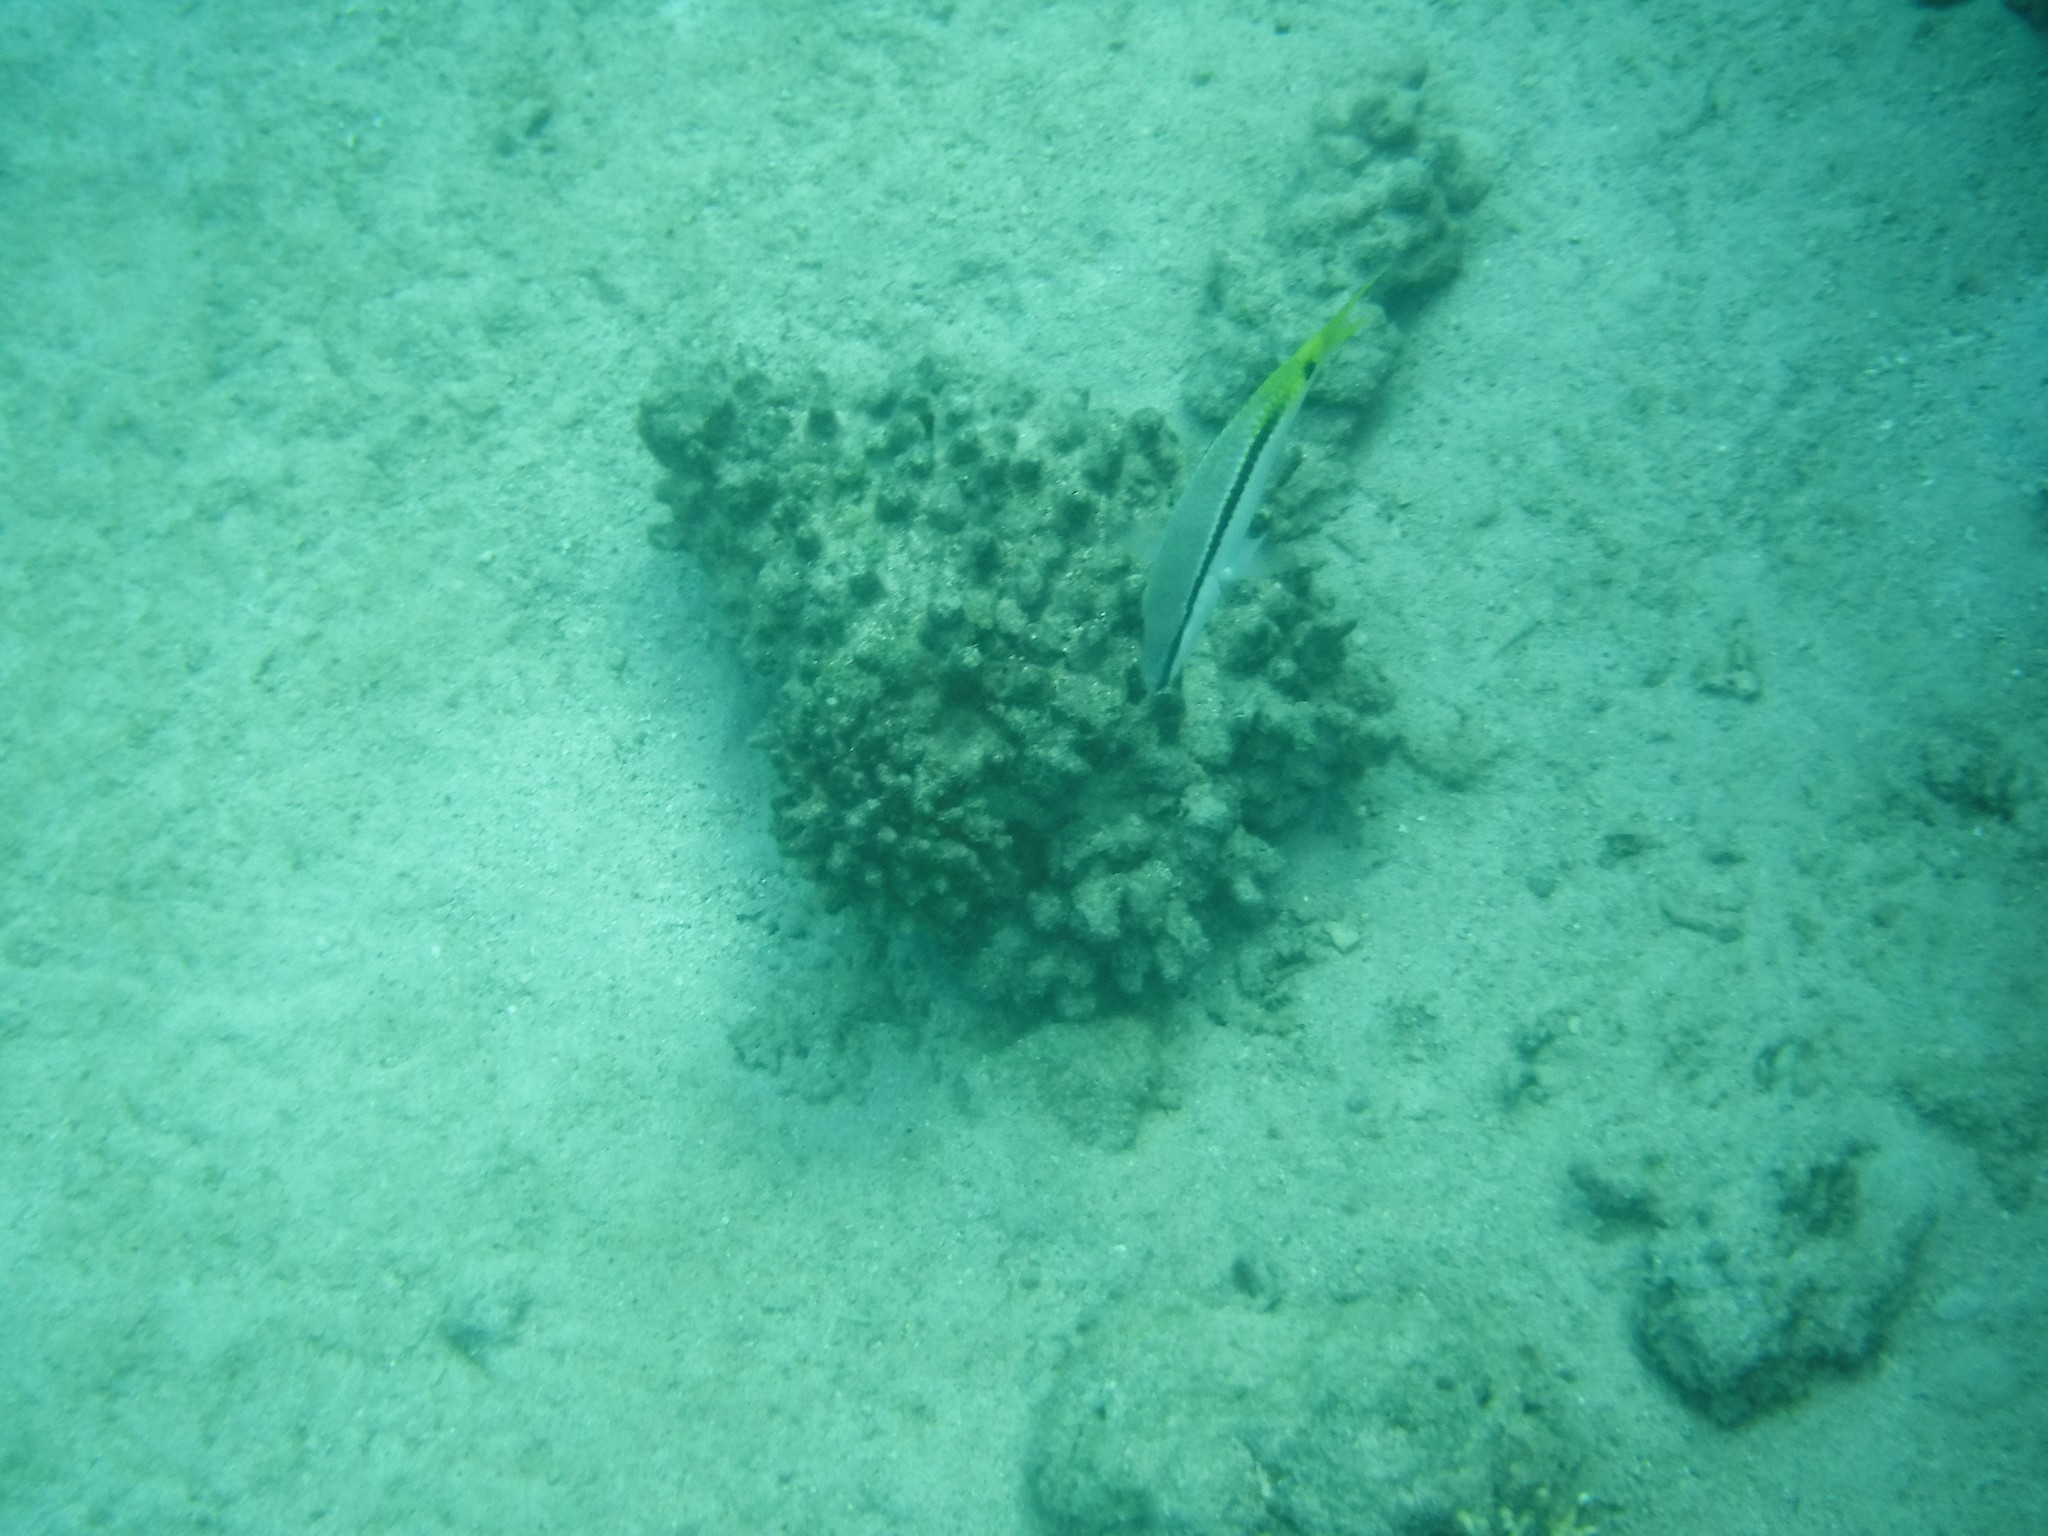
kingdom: Animalia
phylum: Chordata
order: Perciformes
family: Mullidae
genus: Parupeneus
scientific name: Parupeneus forsskali
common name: Red sea goatfish
